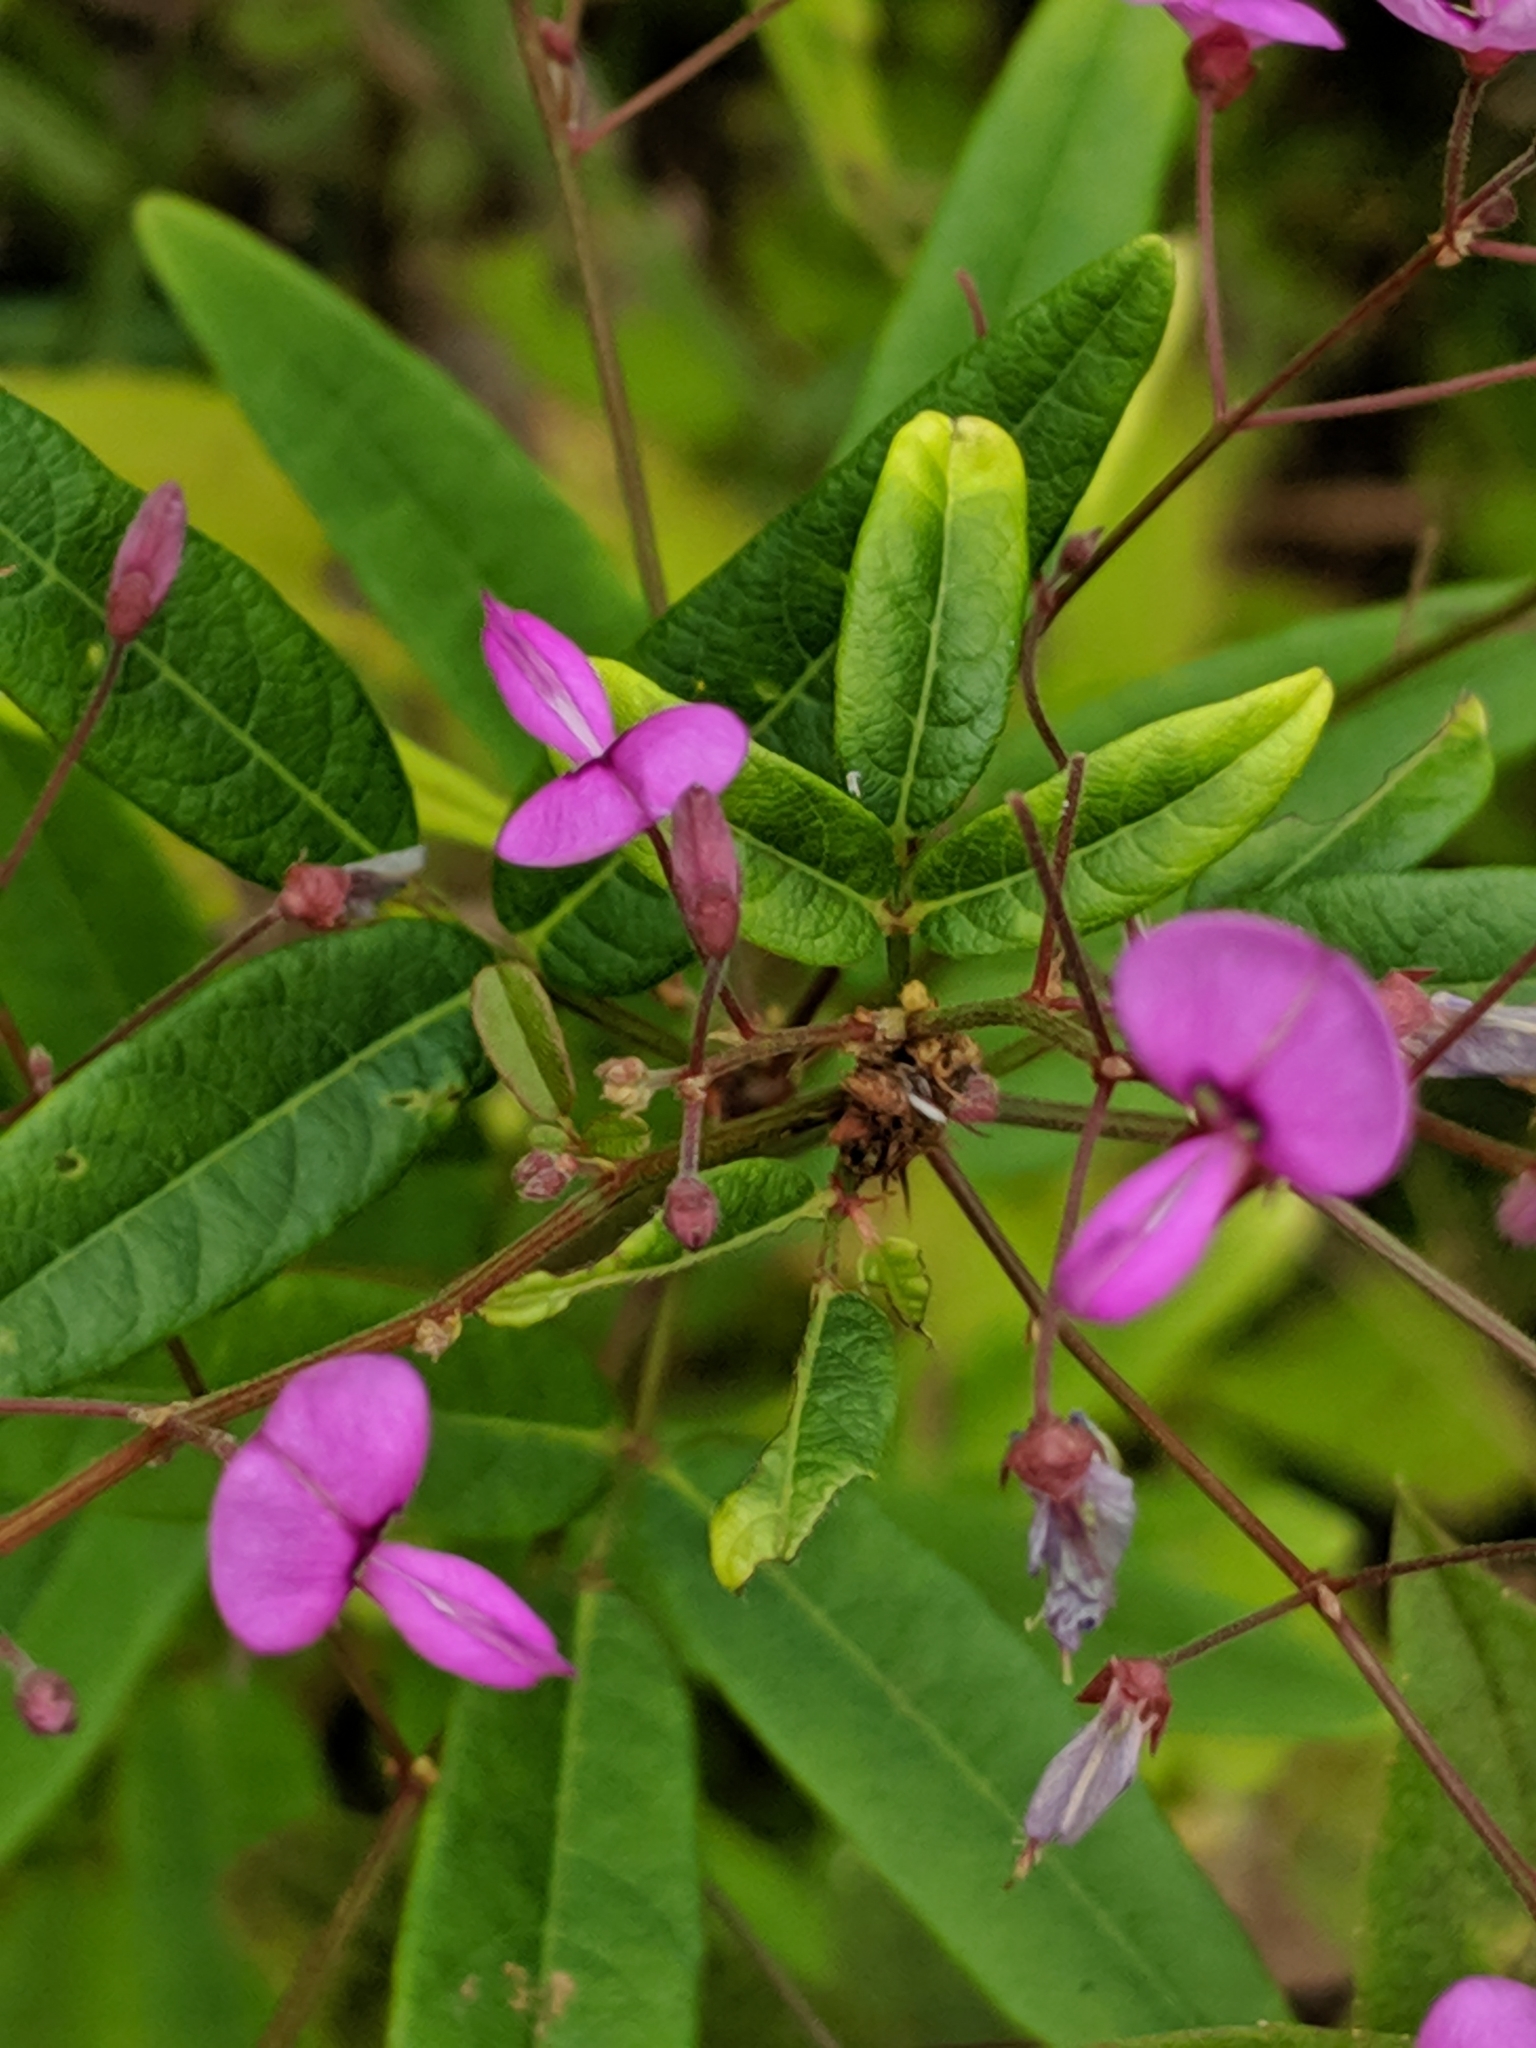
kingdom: Plantae
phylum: Tracheophyta
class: Magnoliopsida
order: Fabales
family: Fabaceae
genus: Desmodium
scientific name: Desmodium paniculatum
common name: Panicled tick-clover
